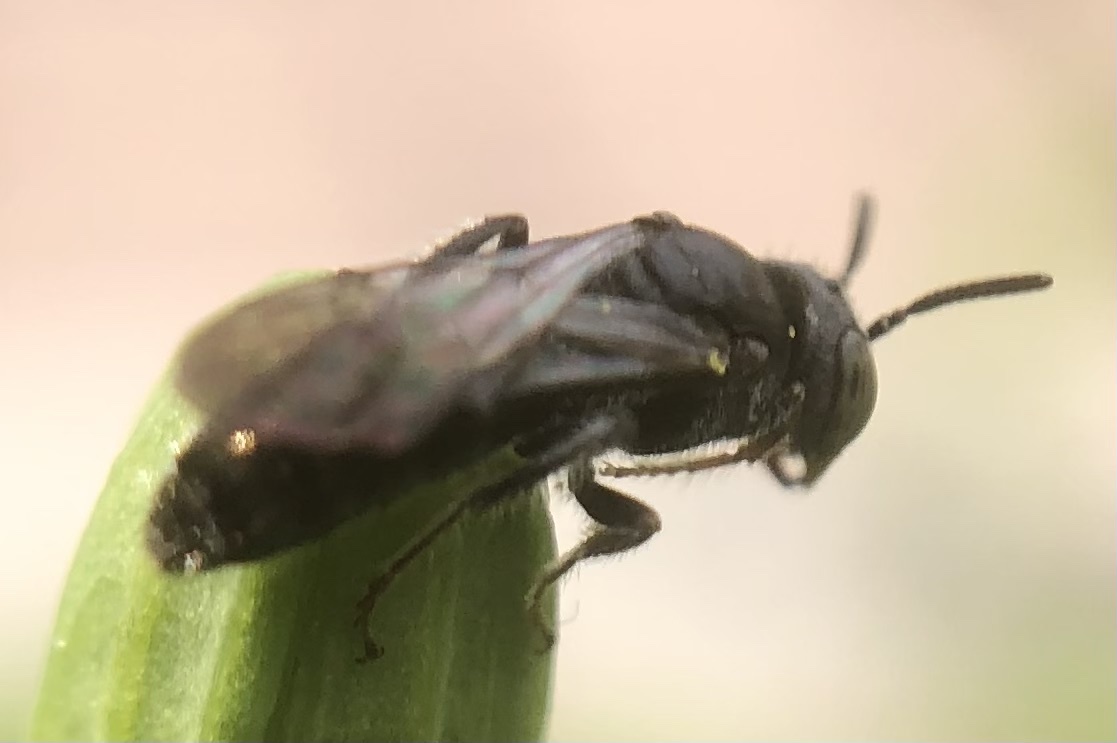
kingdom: Animalia
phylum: Arthropoda
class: Insecta
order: Hymenoptera
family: Andrenidae
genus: Protandrena
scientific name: Protandrena
